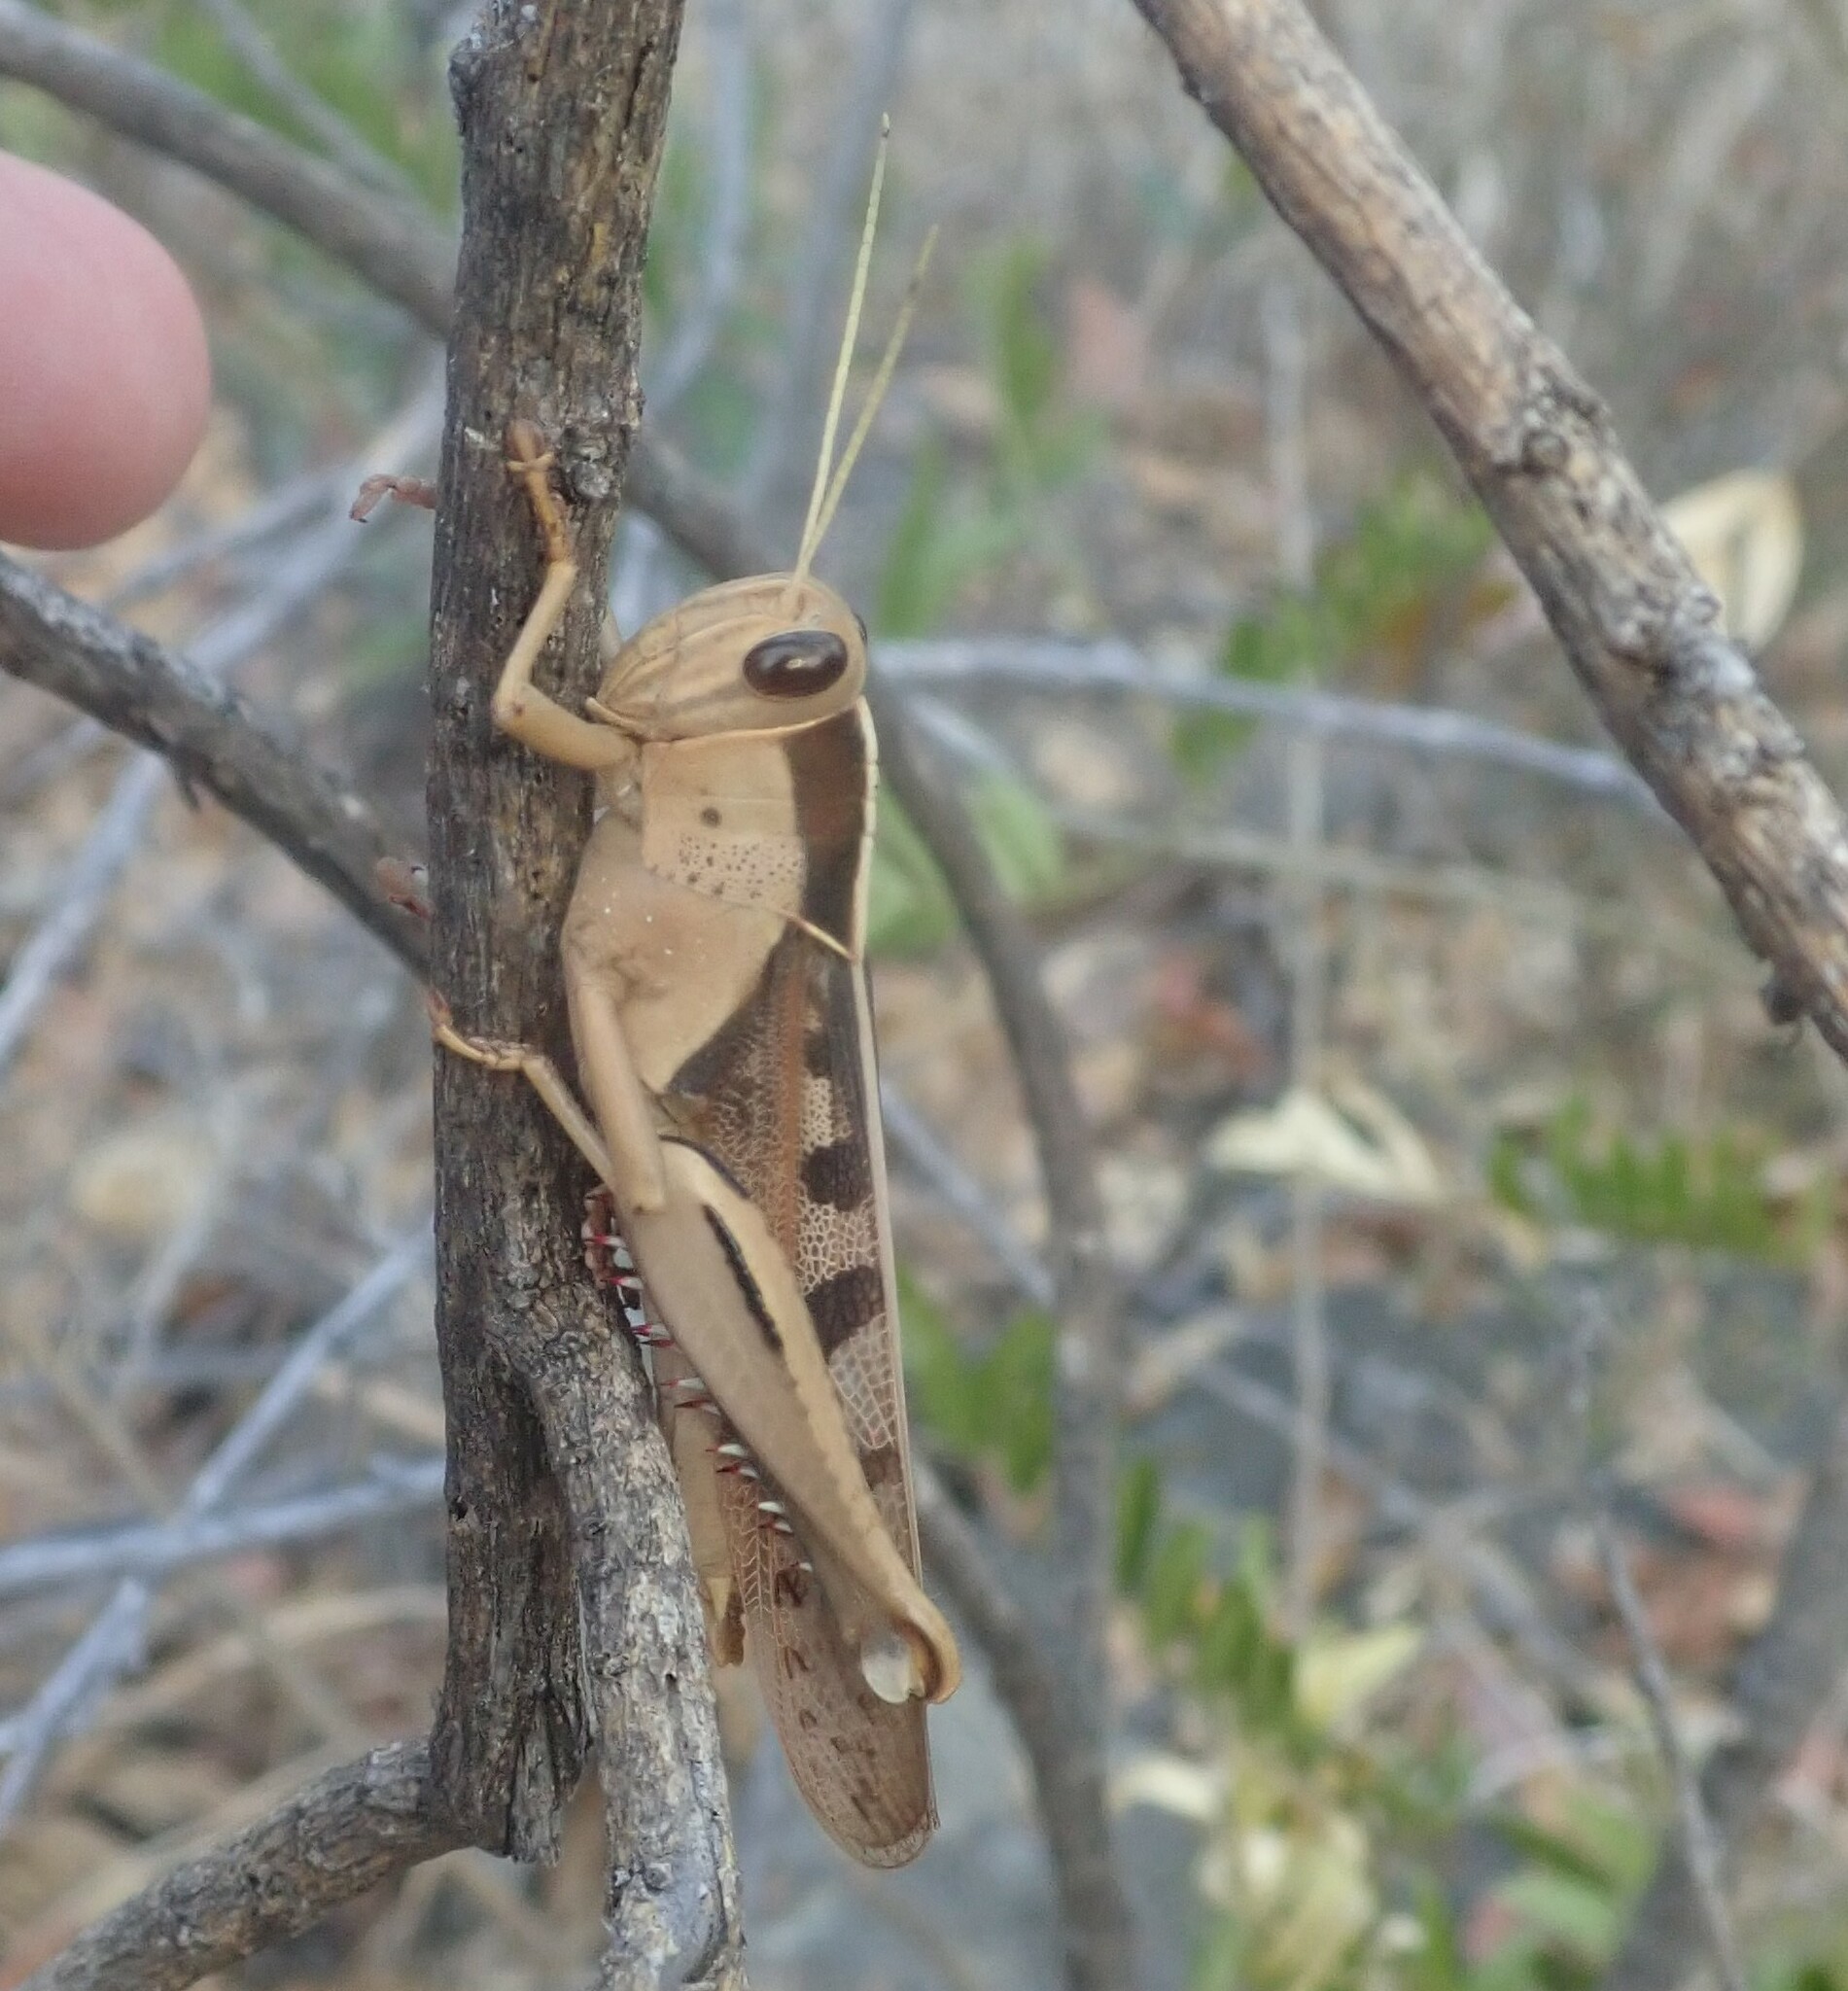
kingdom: Animalia
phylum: Arthropoda
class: Insecta
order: Orthoptera
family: Acrididae
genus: Acanthacris
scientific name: Acanthacris ruficornis
